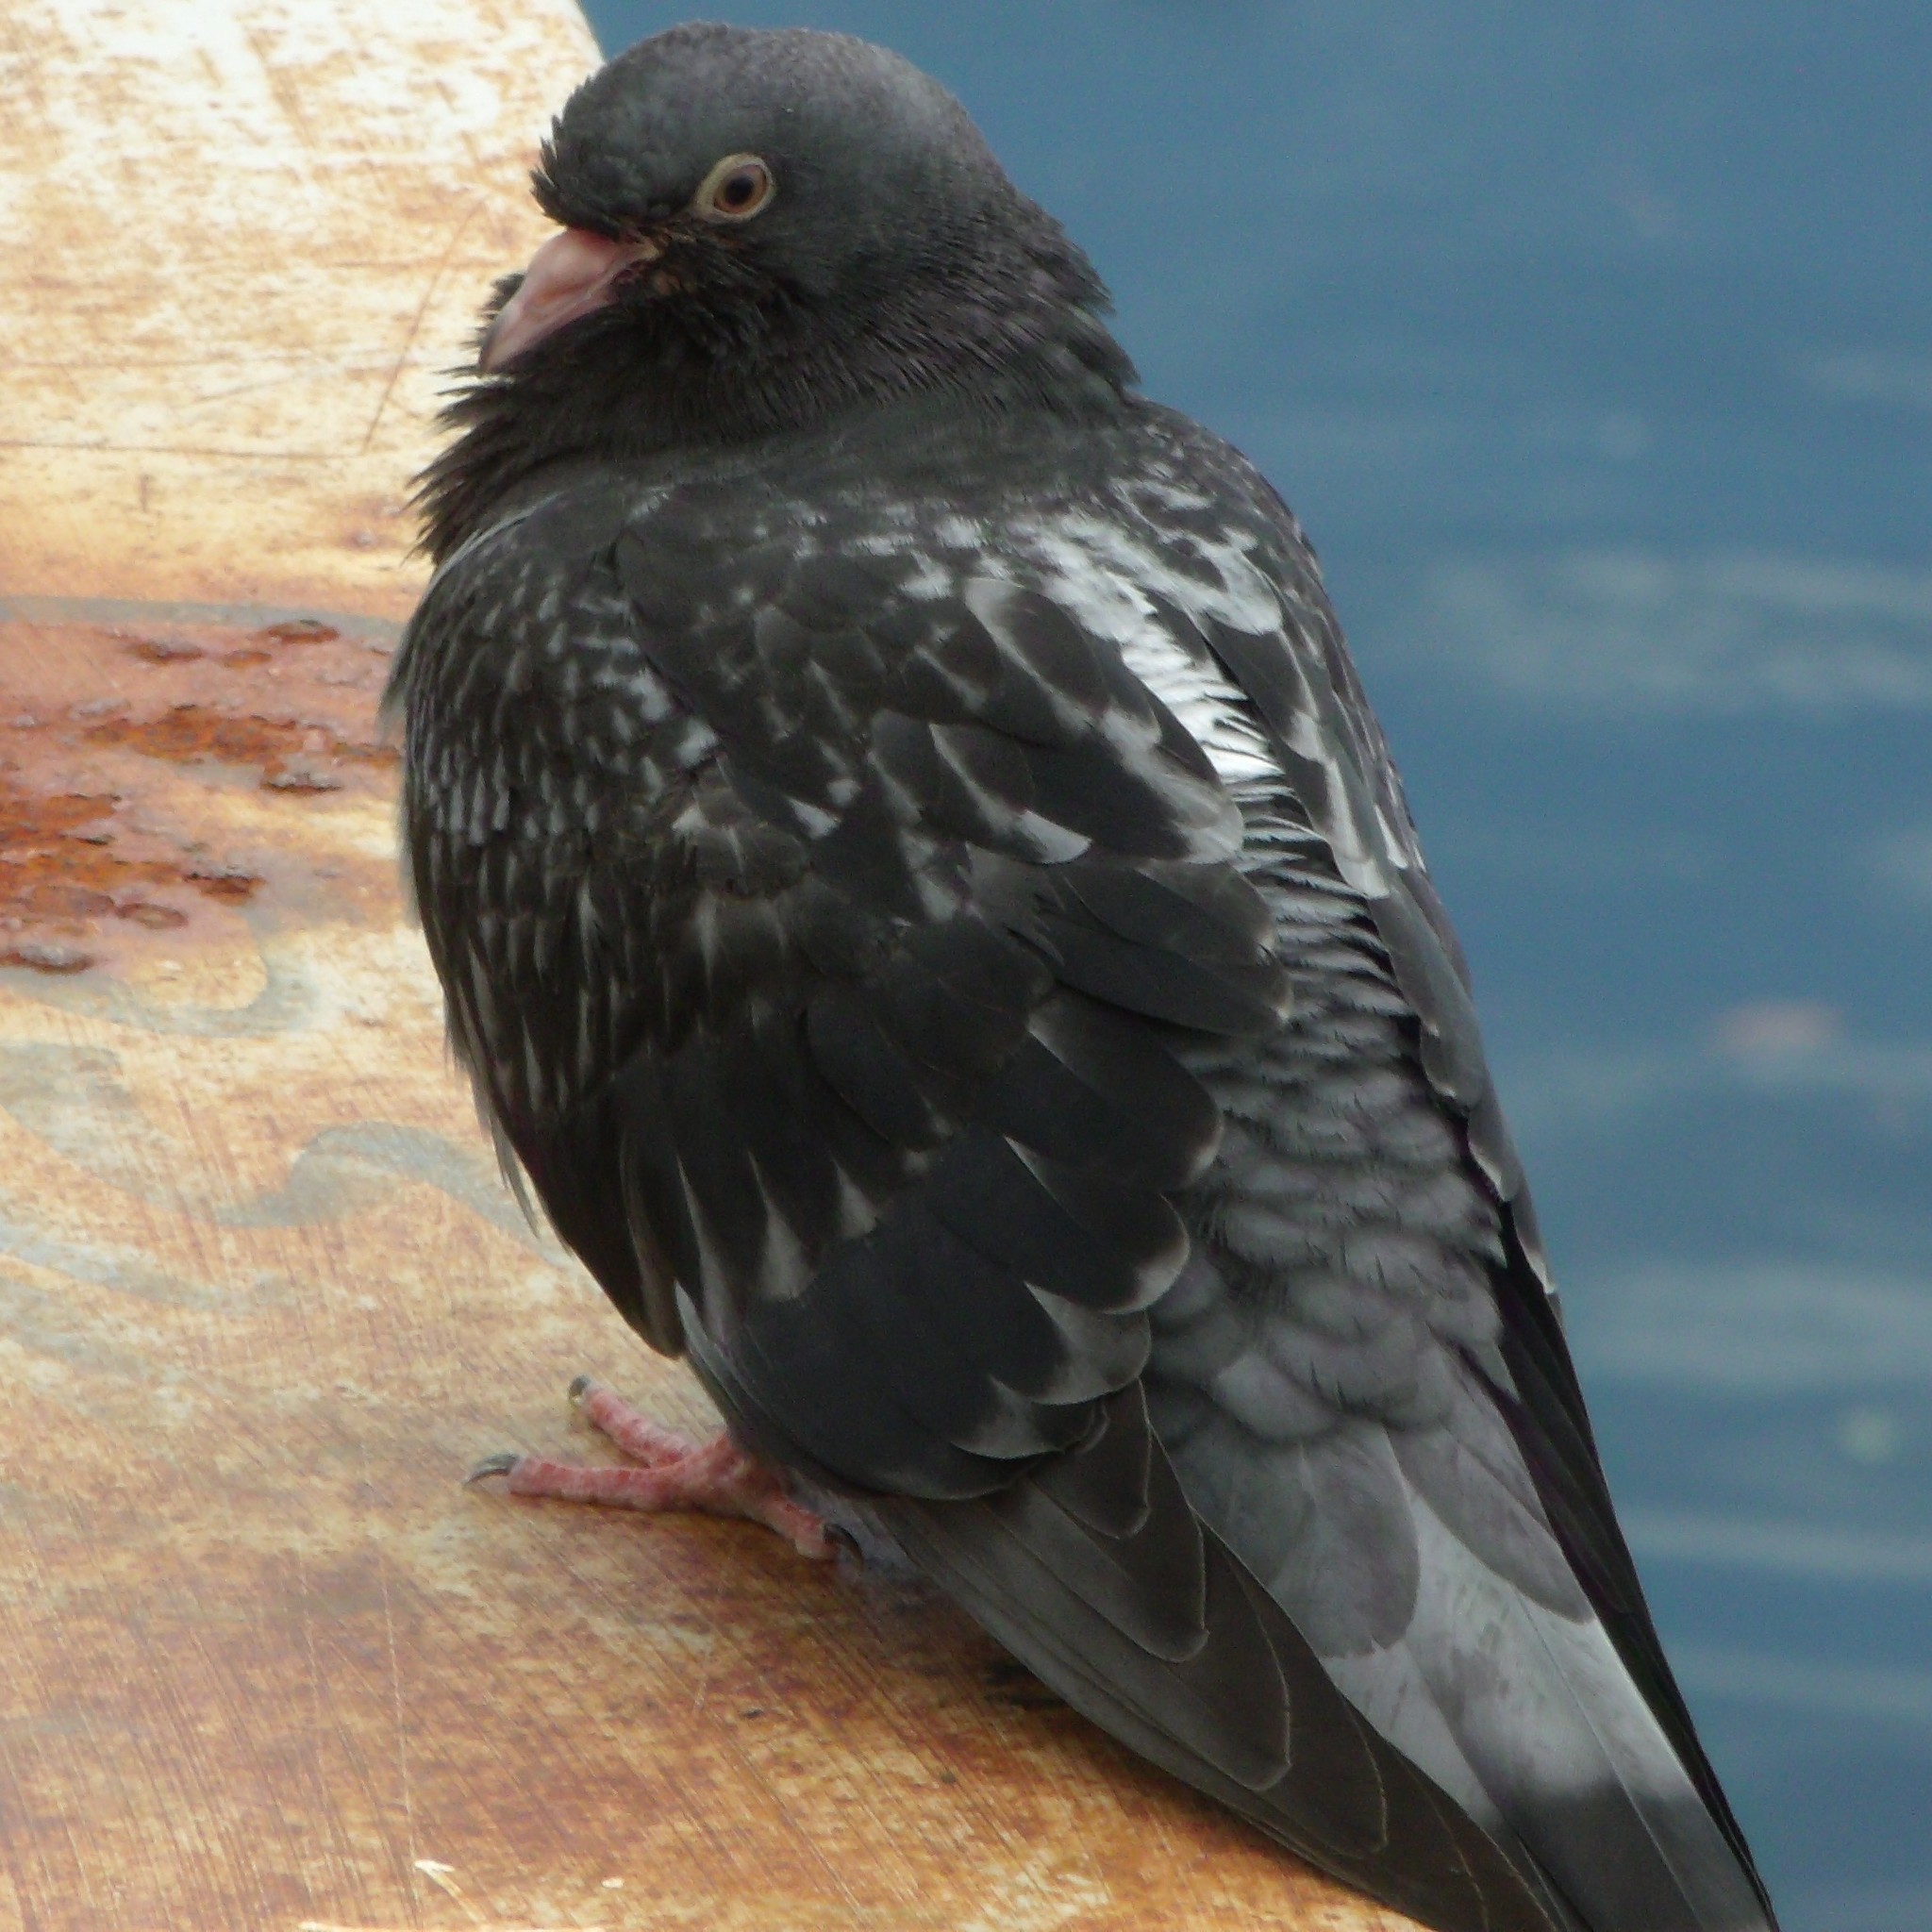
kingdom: Animalia
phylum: Chordata
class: Aves
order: Columbiformes
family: Columbidae
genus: Columba
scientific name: Columba livia
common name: Rock pigeon
